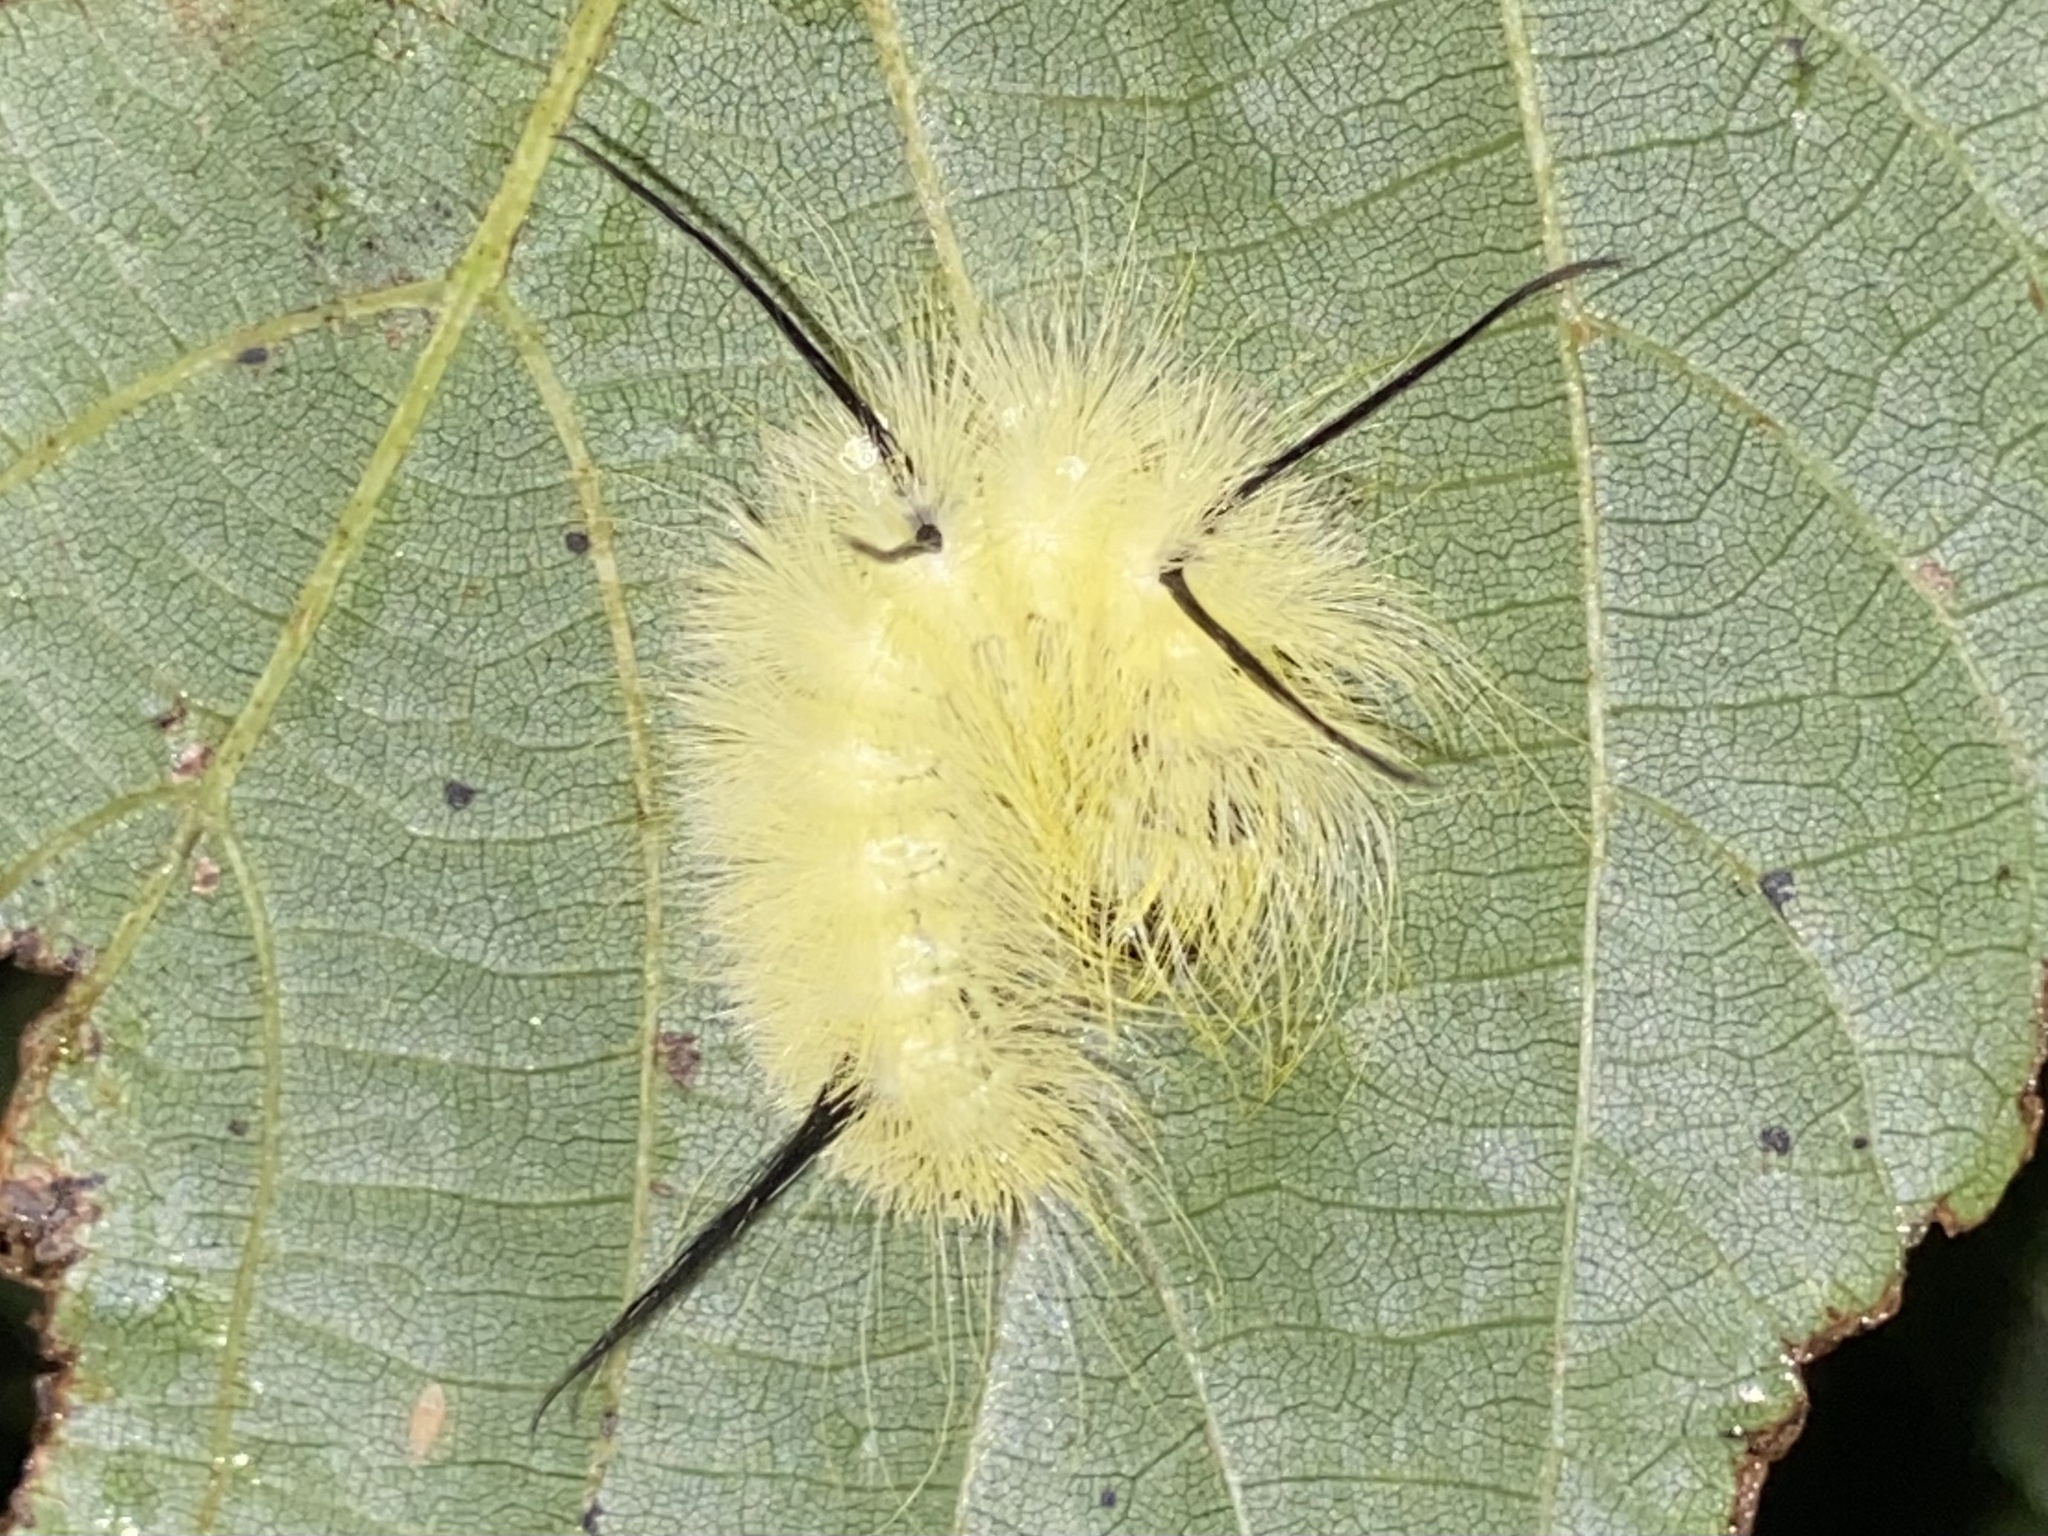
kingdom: Animalia
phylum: Arthropoda
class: Insecta
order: Lepidoptera
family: Noctuidae
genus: Acronicta
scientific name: Acronicta americana
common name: American dagger
